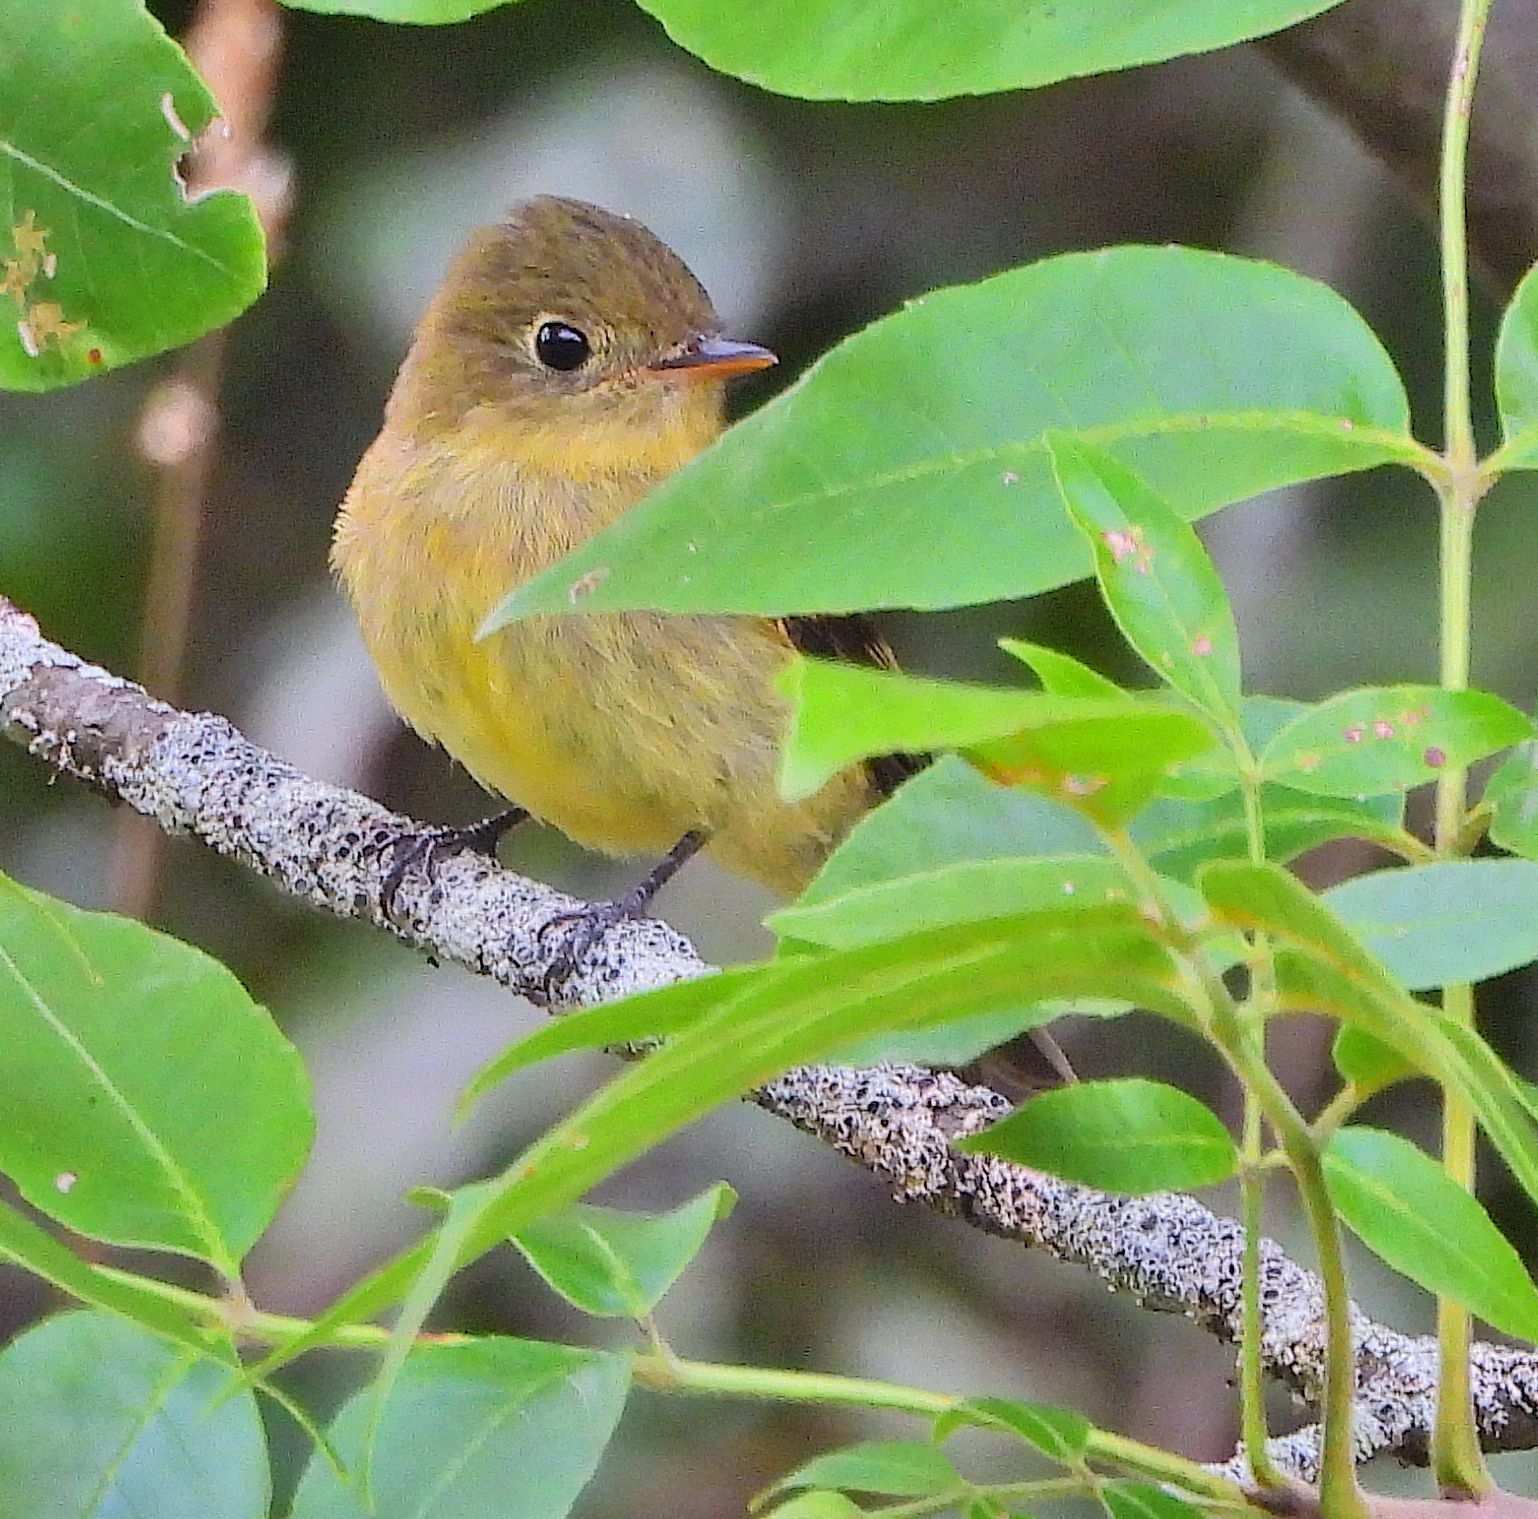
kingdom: Animalia
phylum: Chordata
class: Aves
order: Passeriformes
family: Tyrannidae
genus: Empidonax
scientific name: Empidonax flaviventris
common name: Yellow-bellied flycatcher
